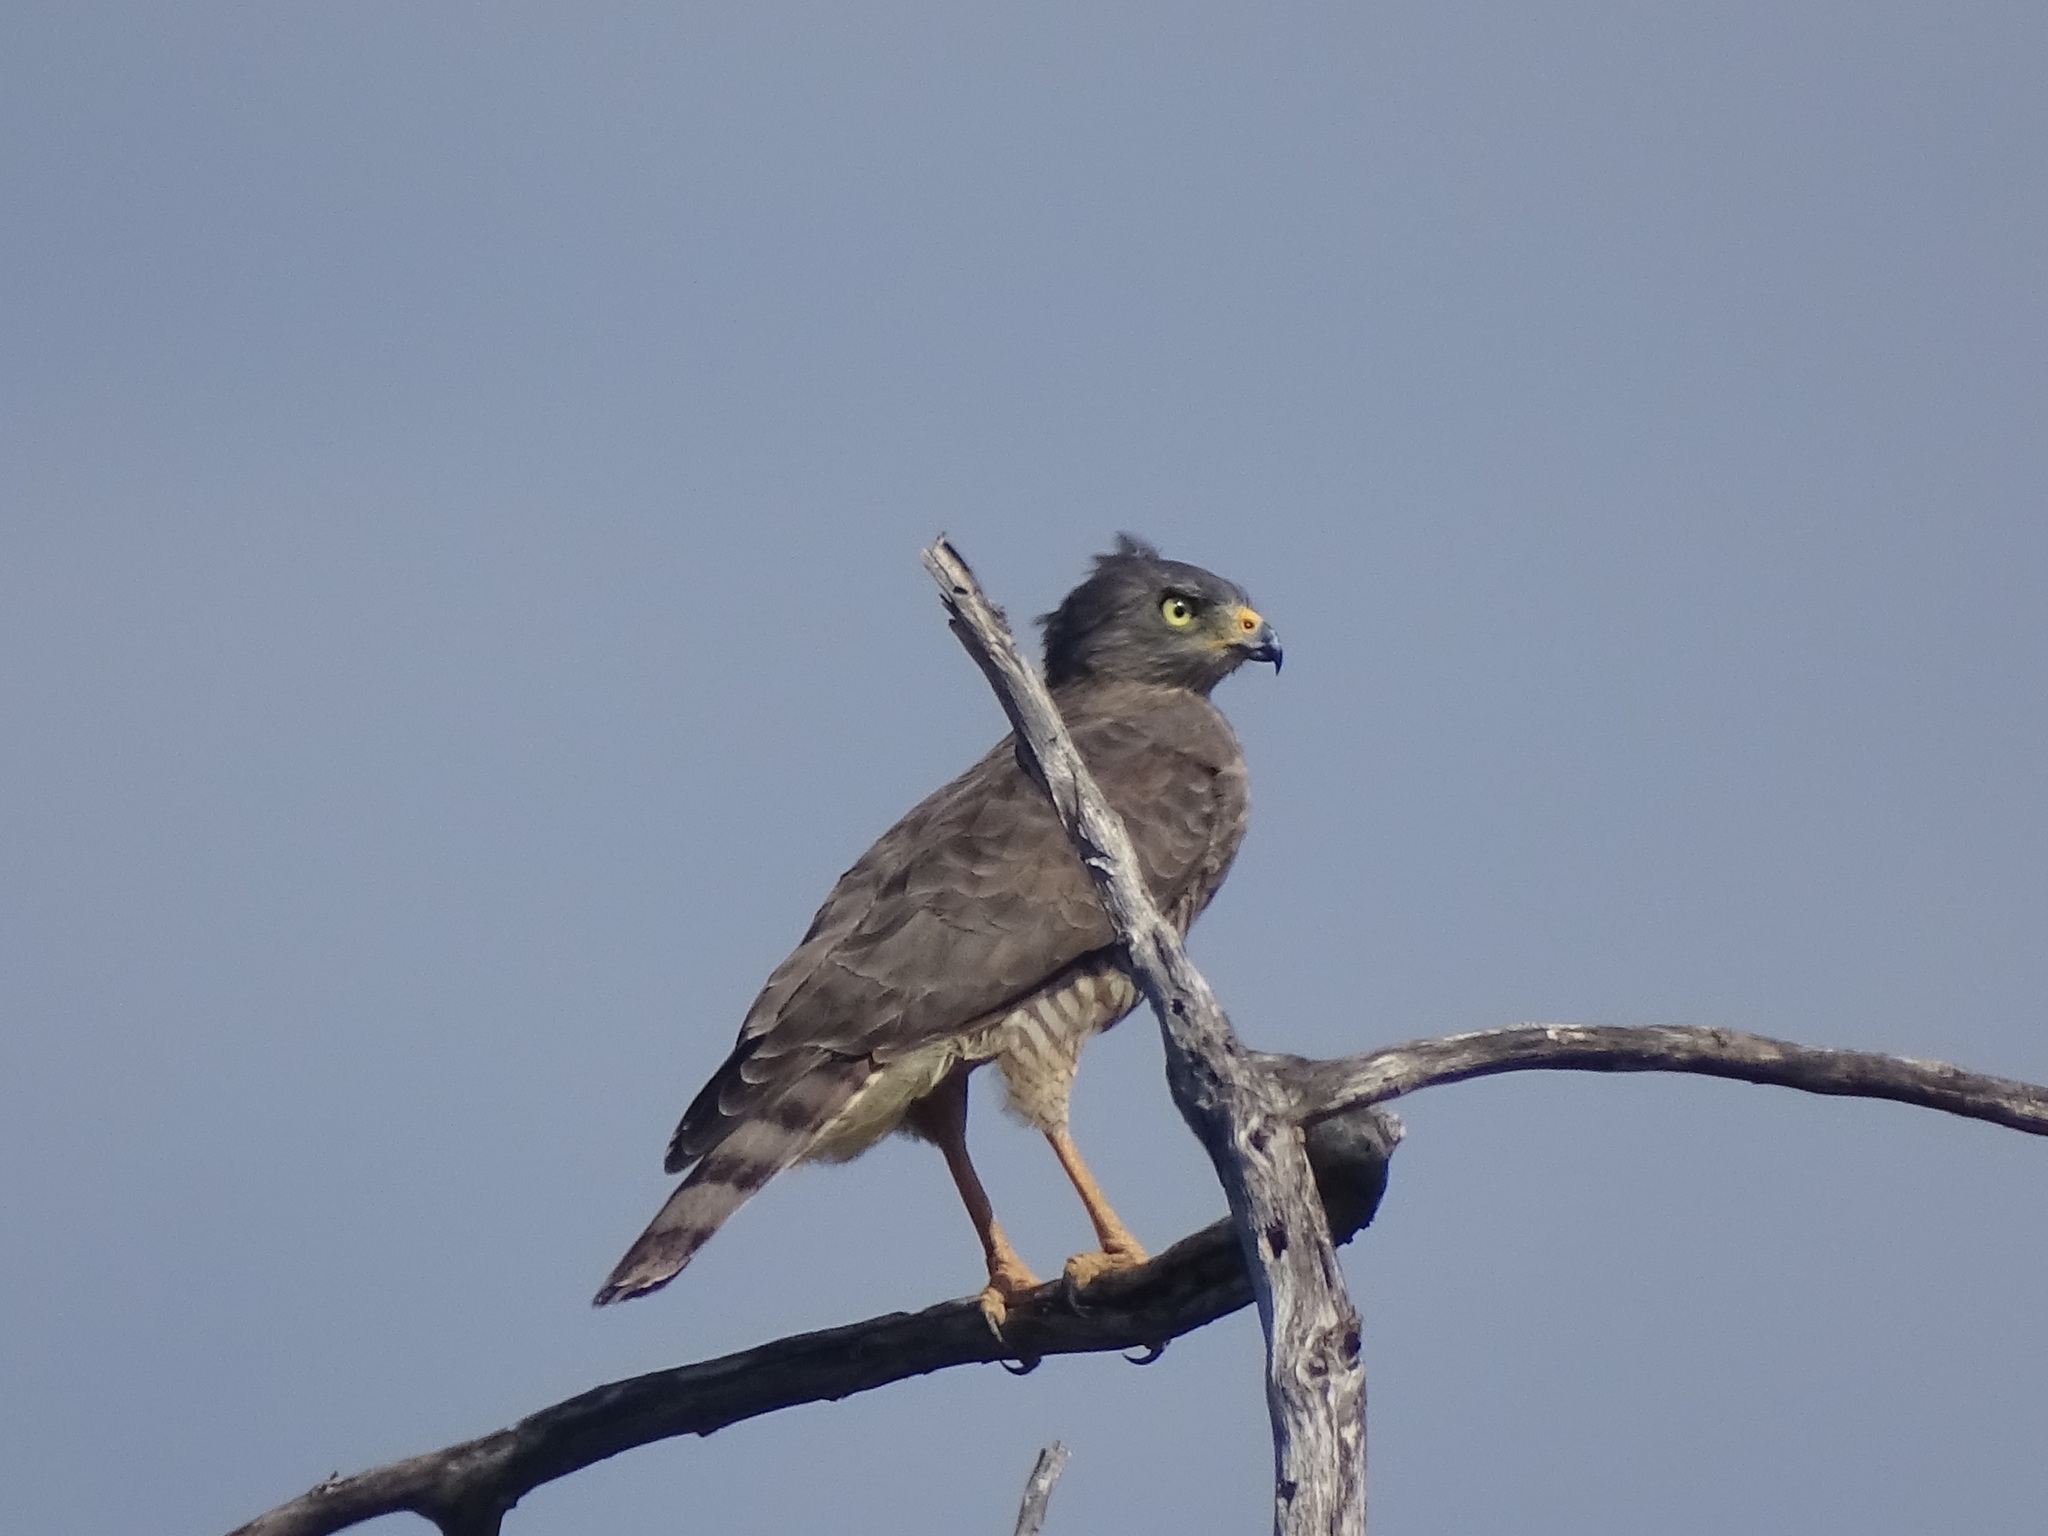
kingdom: Animalia
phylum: Chordata
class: Aves
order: Accipitriformes
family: Accipitridae
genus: Rupornis
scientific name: Rupornis magnirostris
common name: Roadside hawk
